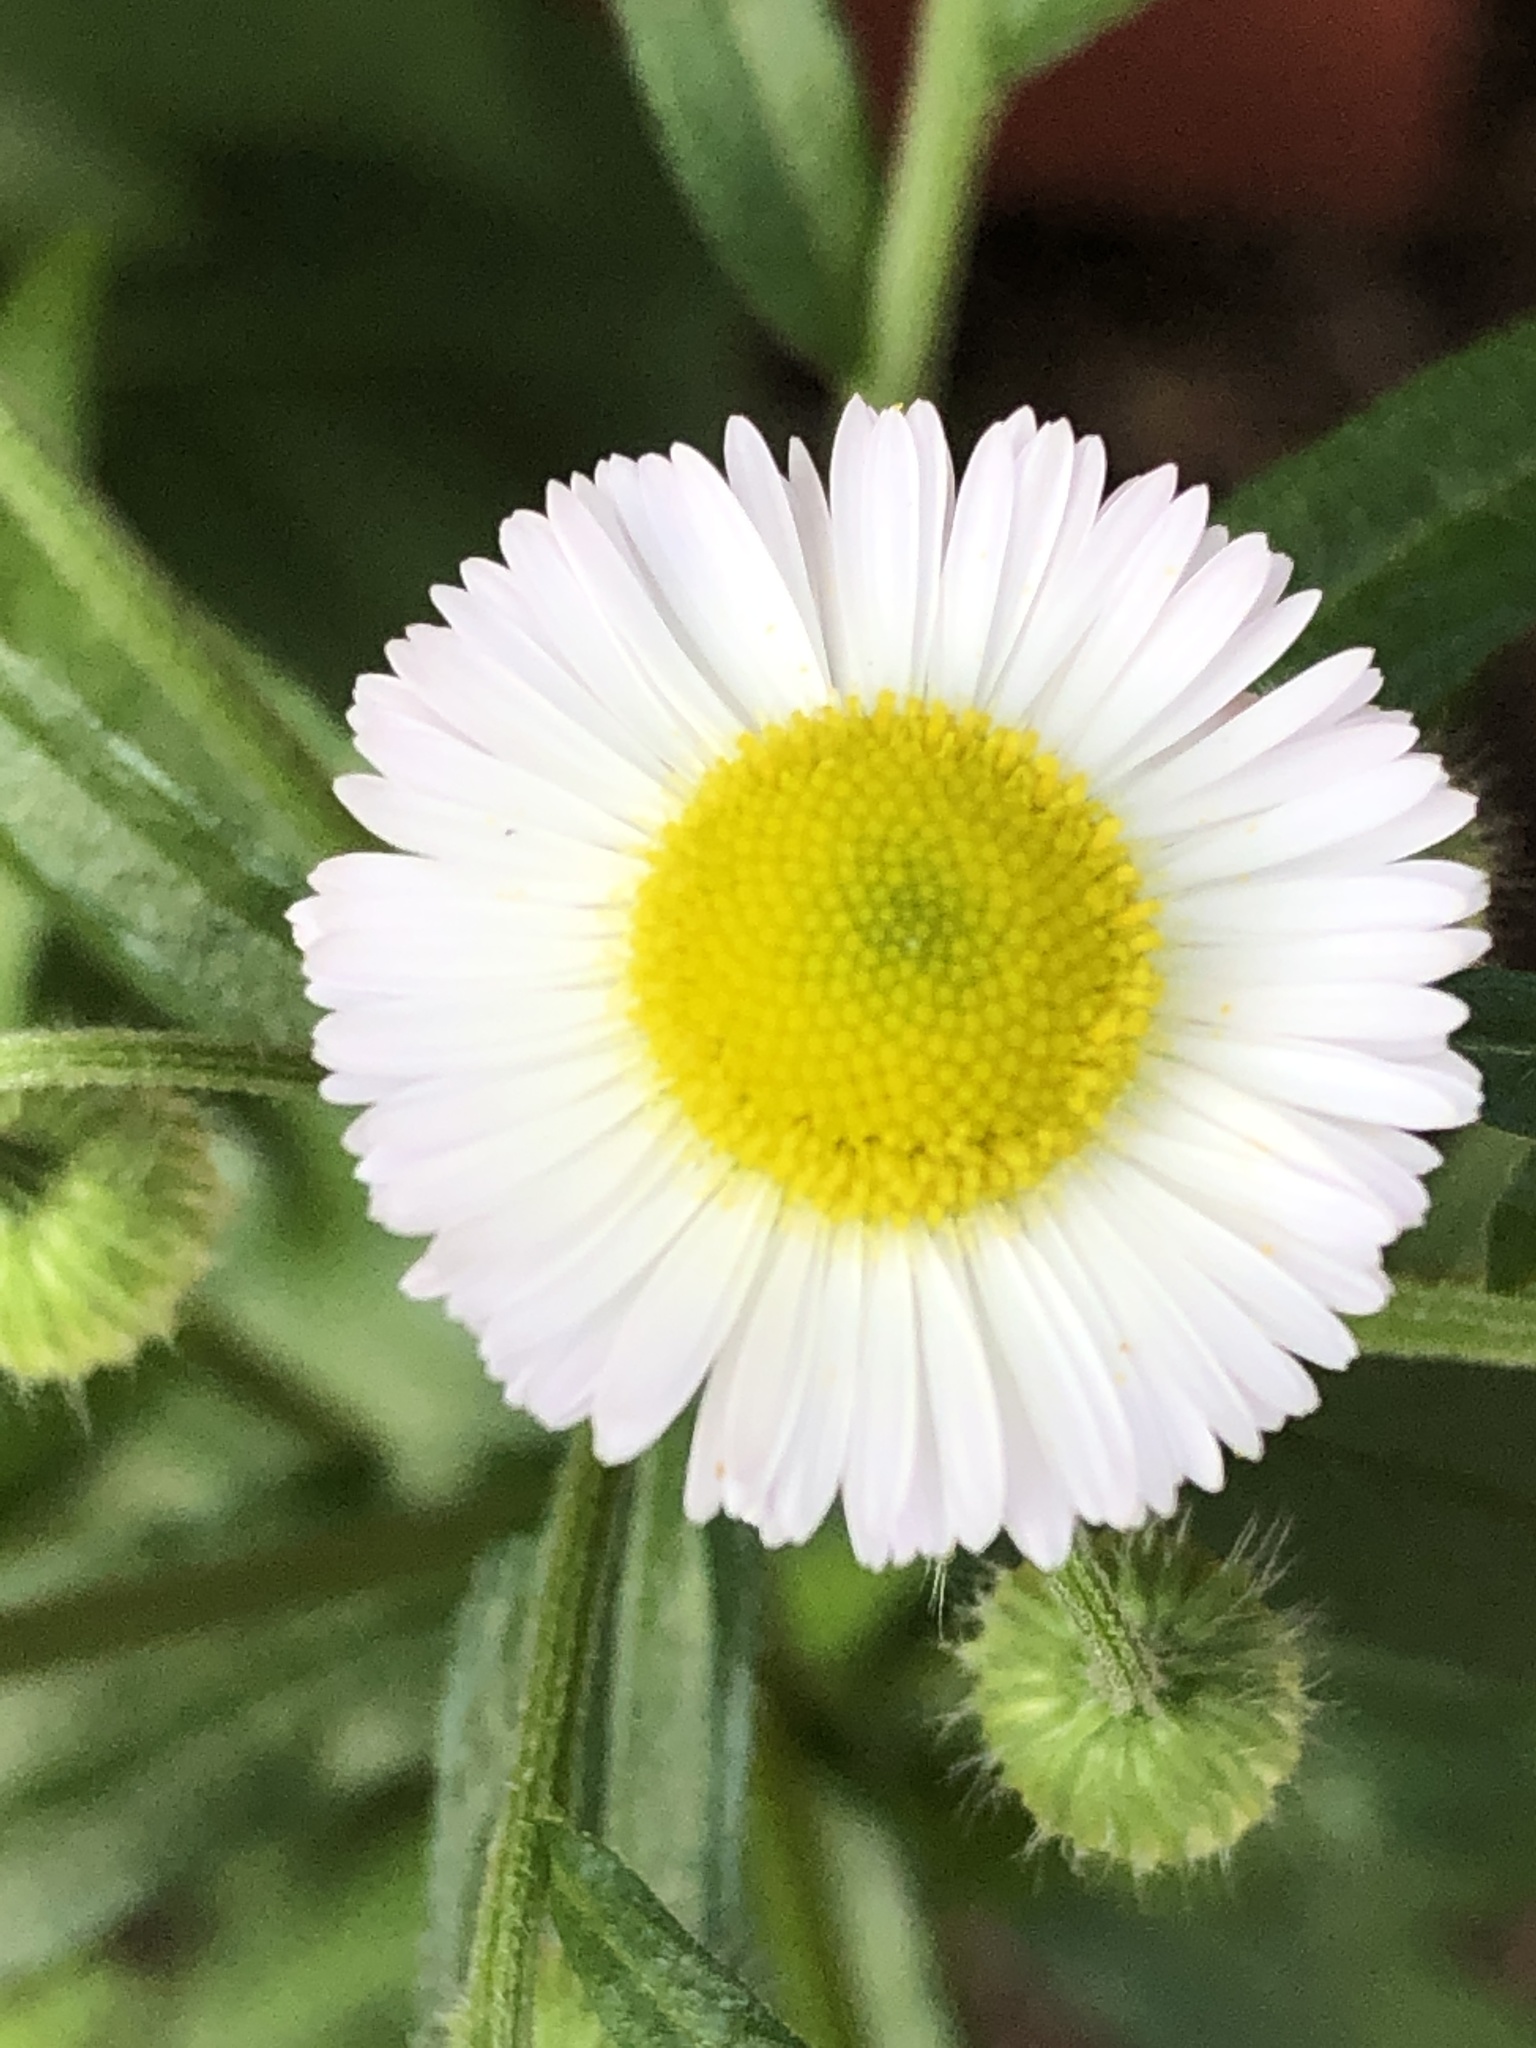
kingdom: Plantae
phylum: Tracheophyta
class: Magnoliopsida
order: Asterales
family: Asteraceae
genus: Erigeron
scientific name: Erigeron strigosus
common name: Common eastern fleabane
